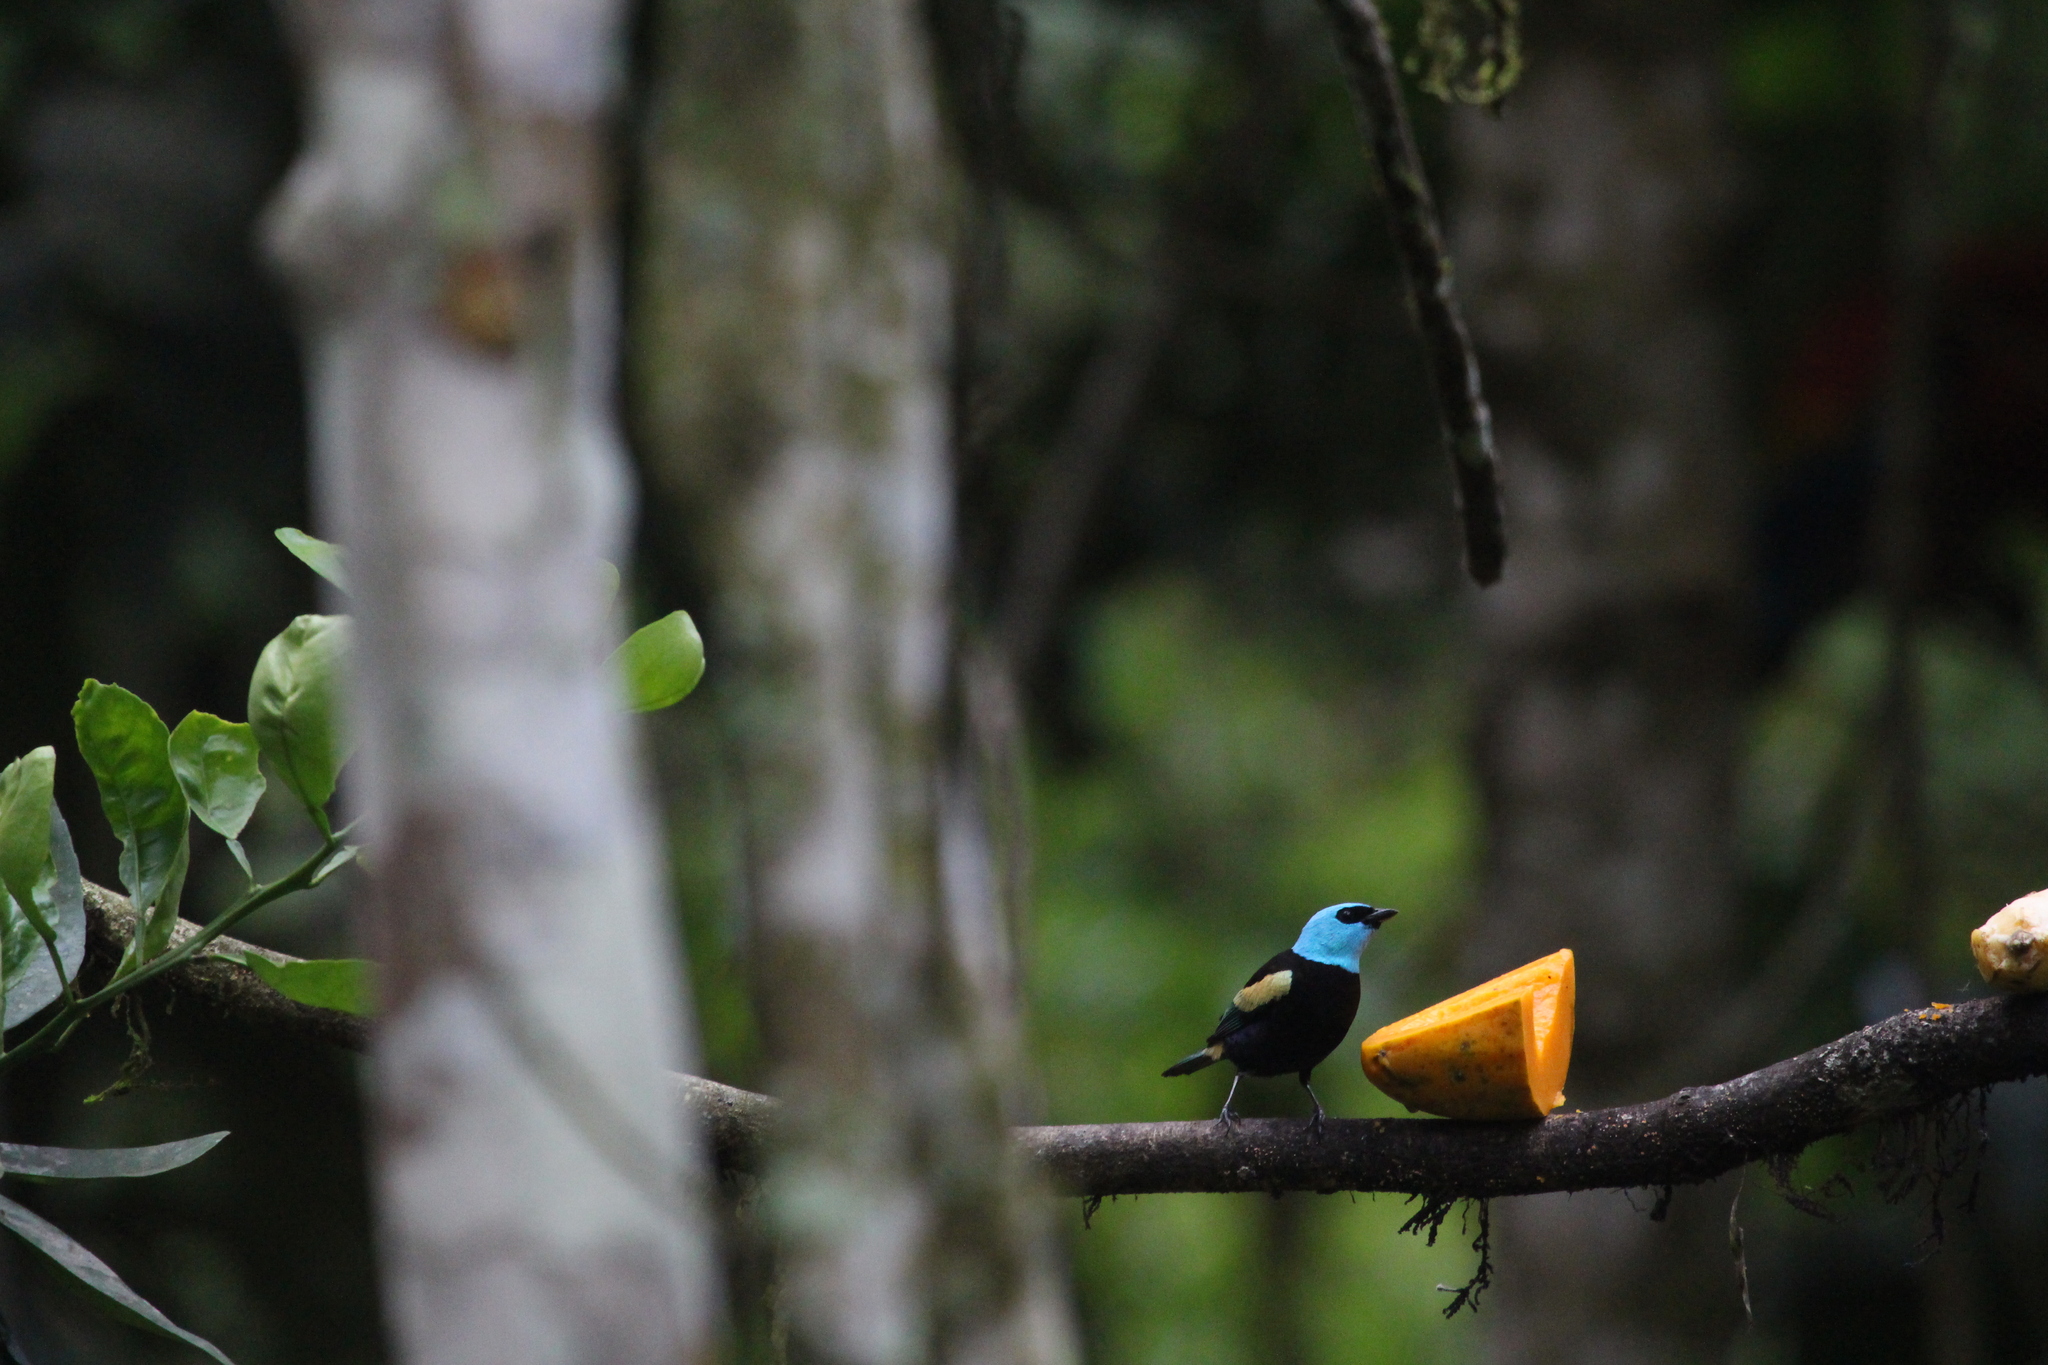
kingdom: Animalia
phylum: Chordata
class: Aves
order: Passeriformes
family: Thraupidae
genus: Stilpnia
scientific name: Stilpnia cyanicollis
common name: Blue-necked tanager
